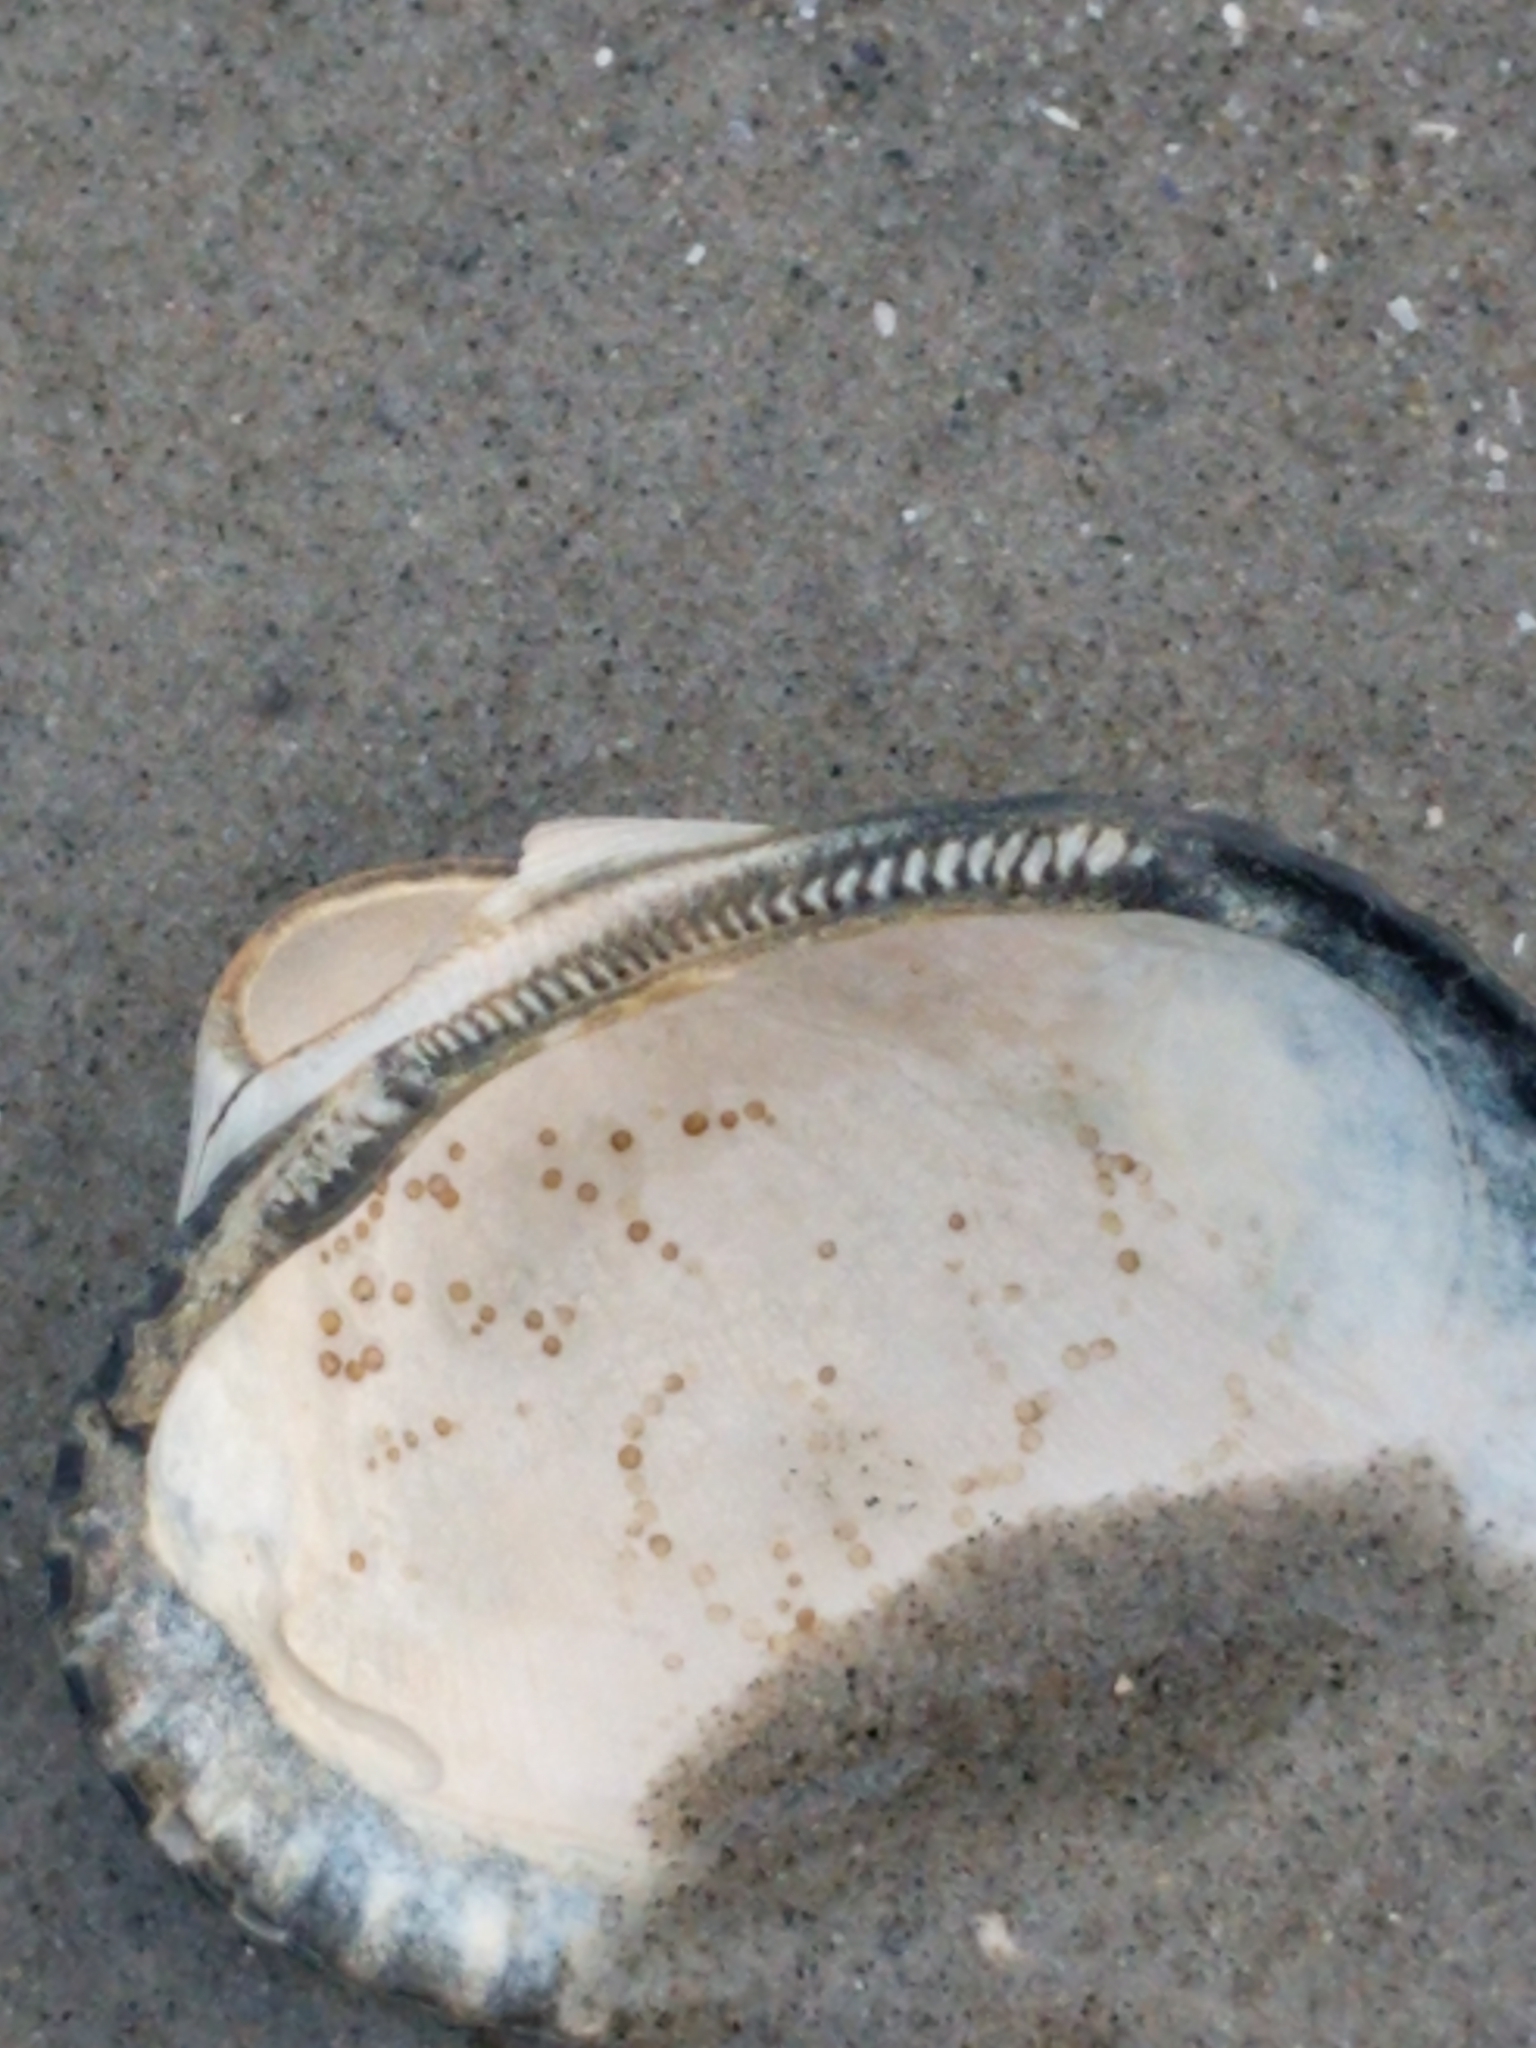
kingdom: Animalia
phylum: Mollusca
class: Bivalvia
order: Arcida
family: Arcidae
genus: Lunarca
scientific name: Lunarca ovalis
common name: Blood ark
